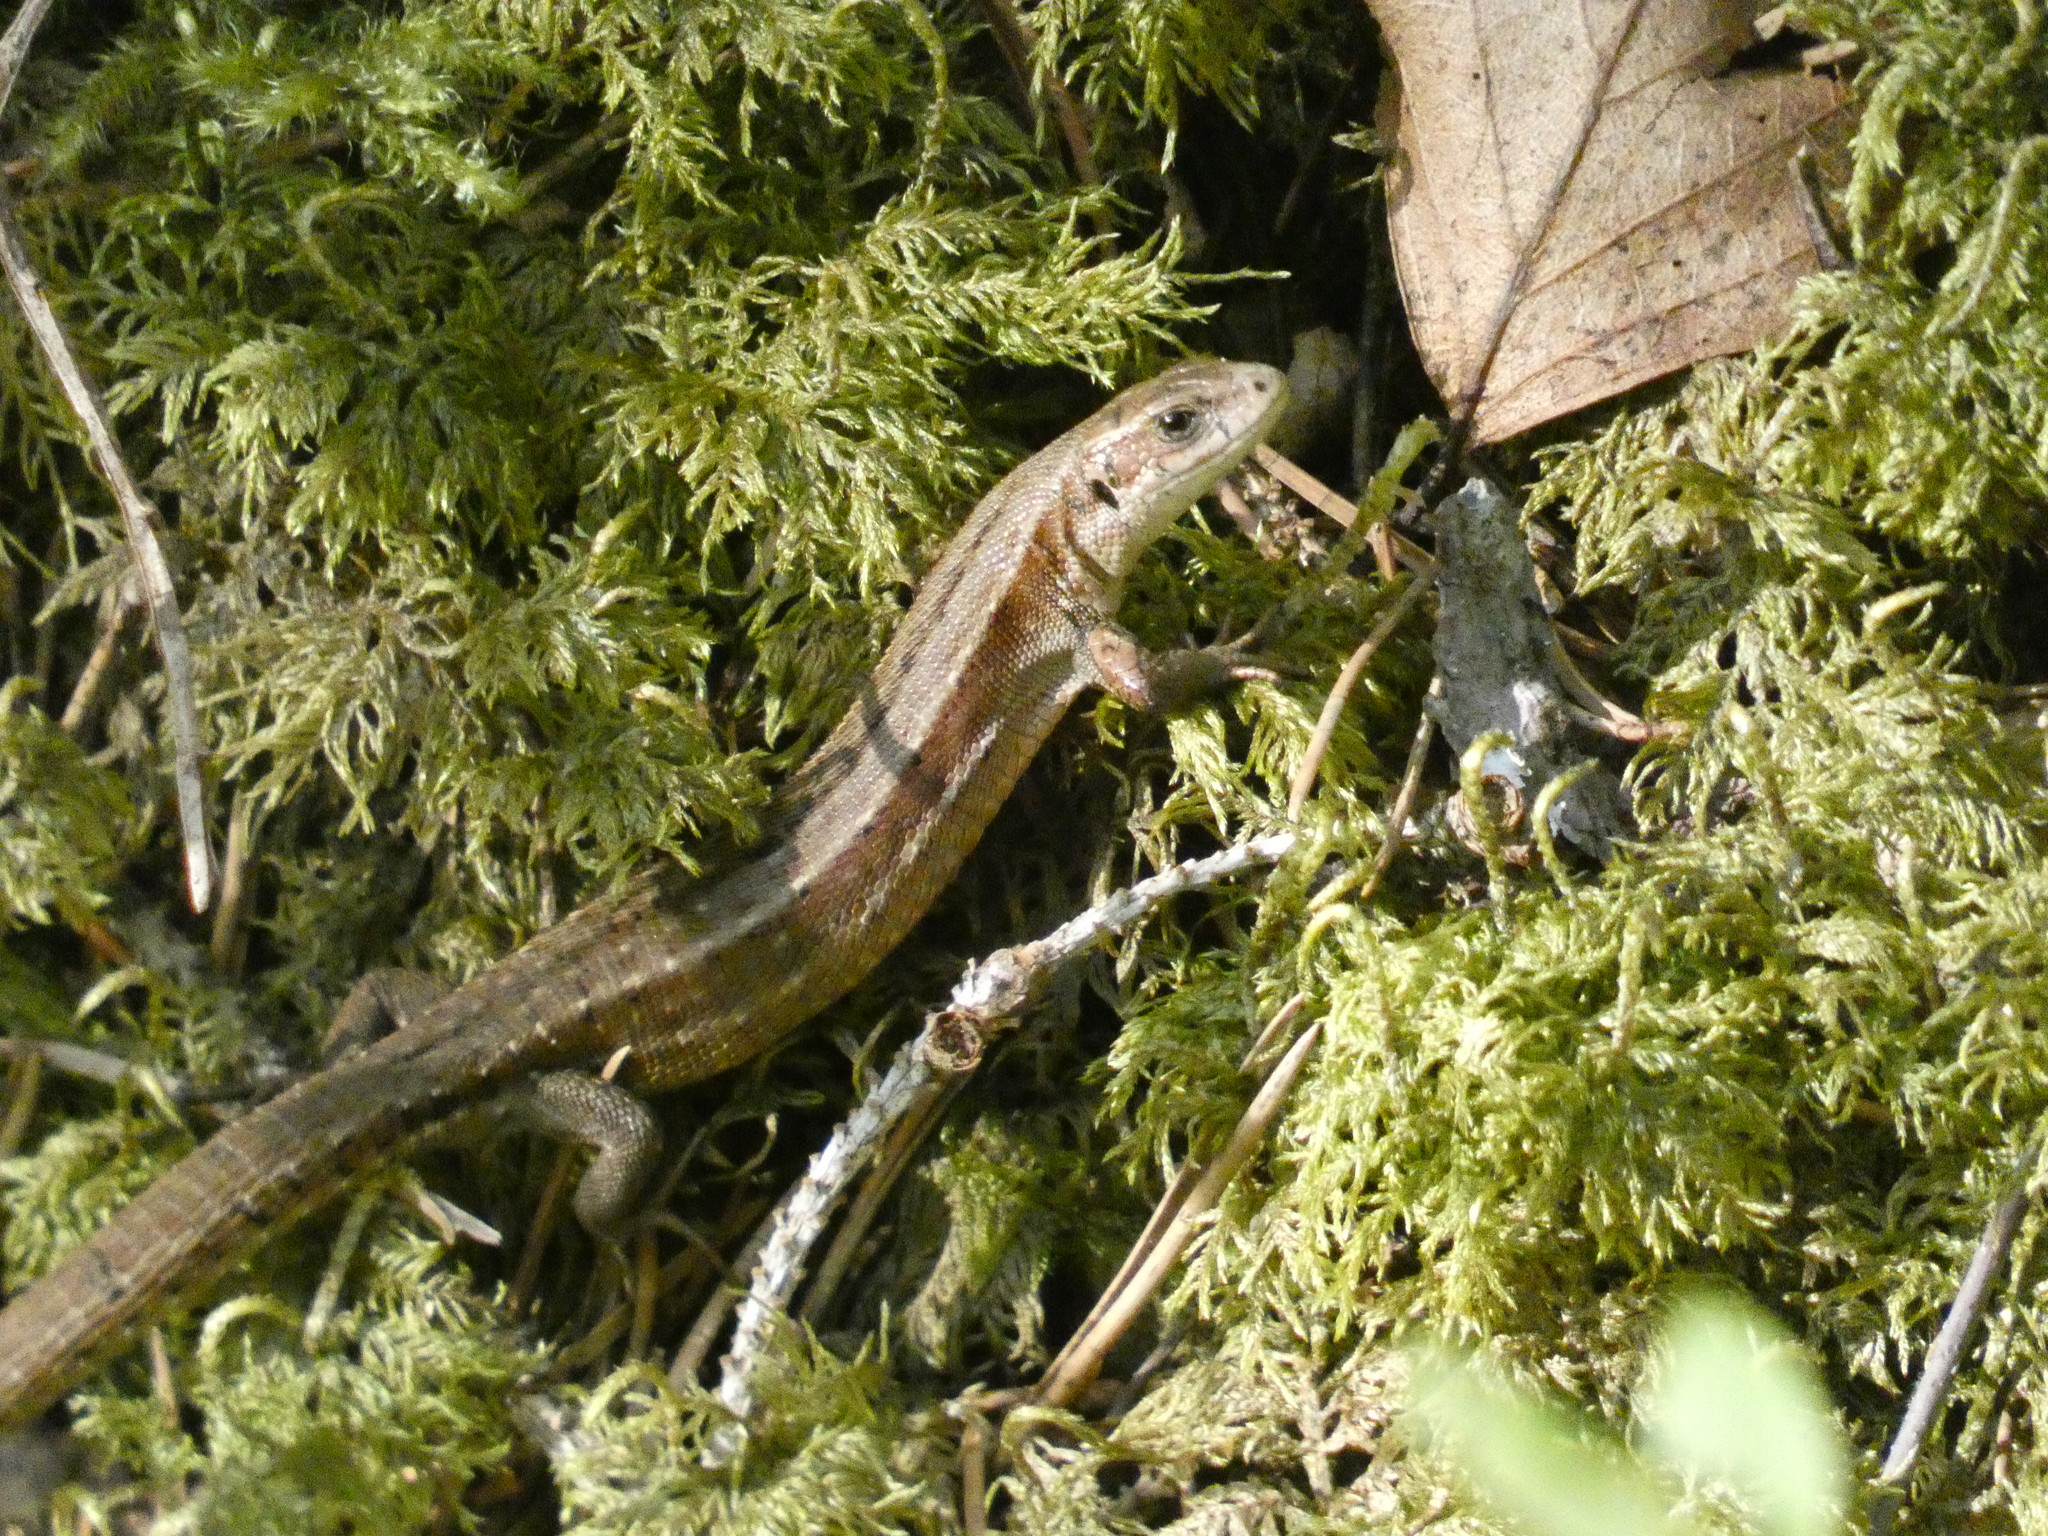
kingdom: Animalia
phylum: Chordata
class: Squamata
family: Lacertidae
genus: Zootoca
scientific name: Zootoca vivipara
